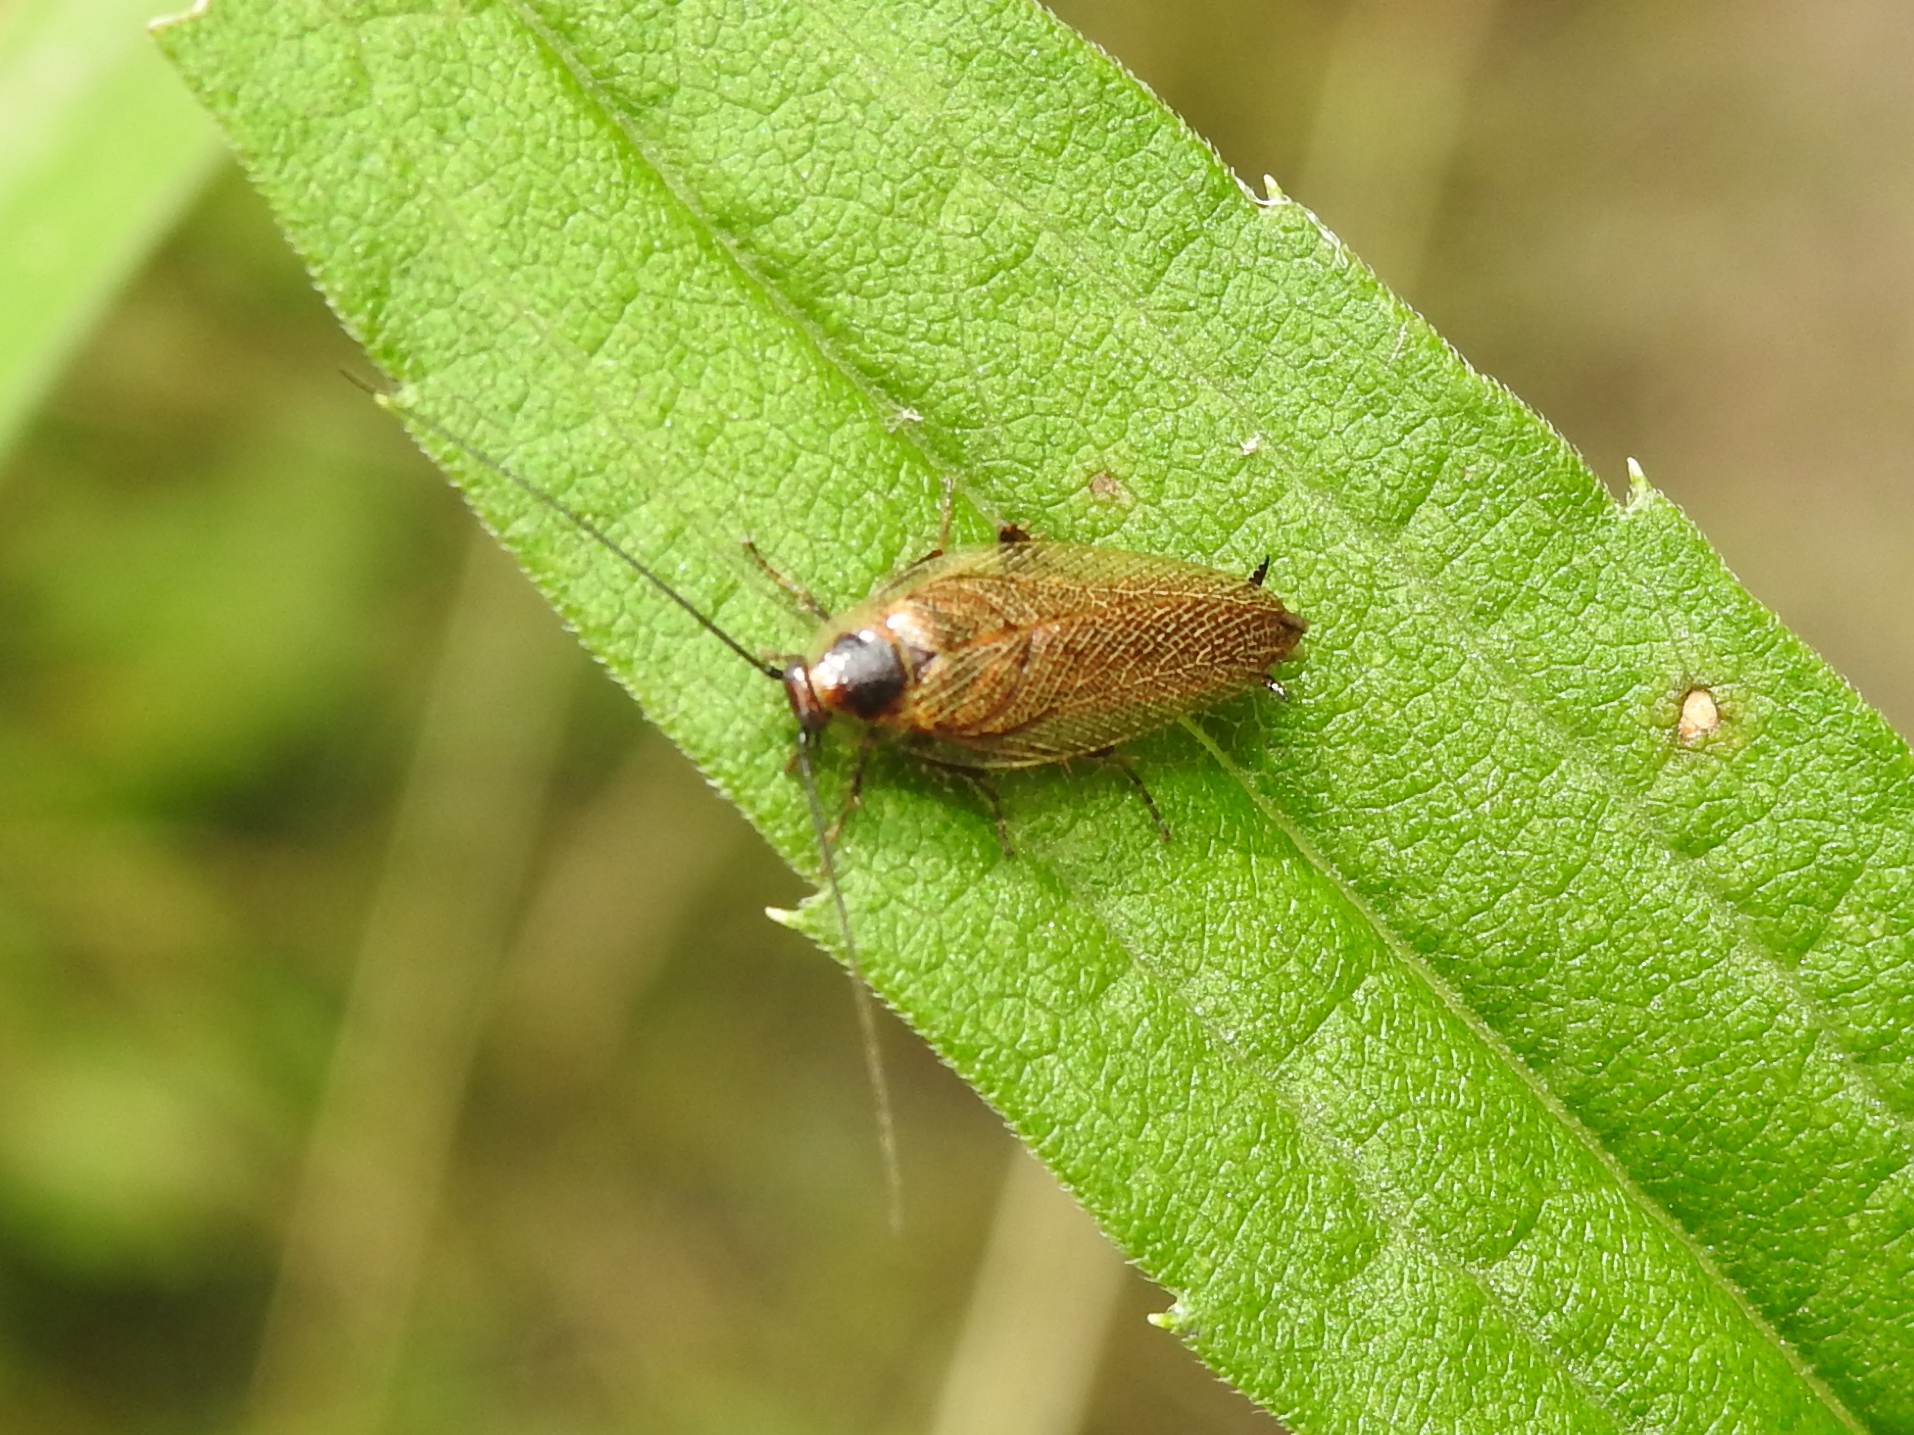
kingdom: Animalia
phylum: Arthropoda
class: Insecta
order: Blattodea
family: Ectobiidae
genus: Ectobius
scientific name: Ectobius lapponicus
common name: Dusky cockroach
